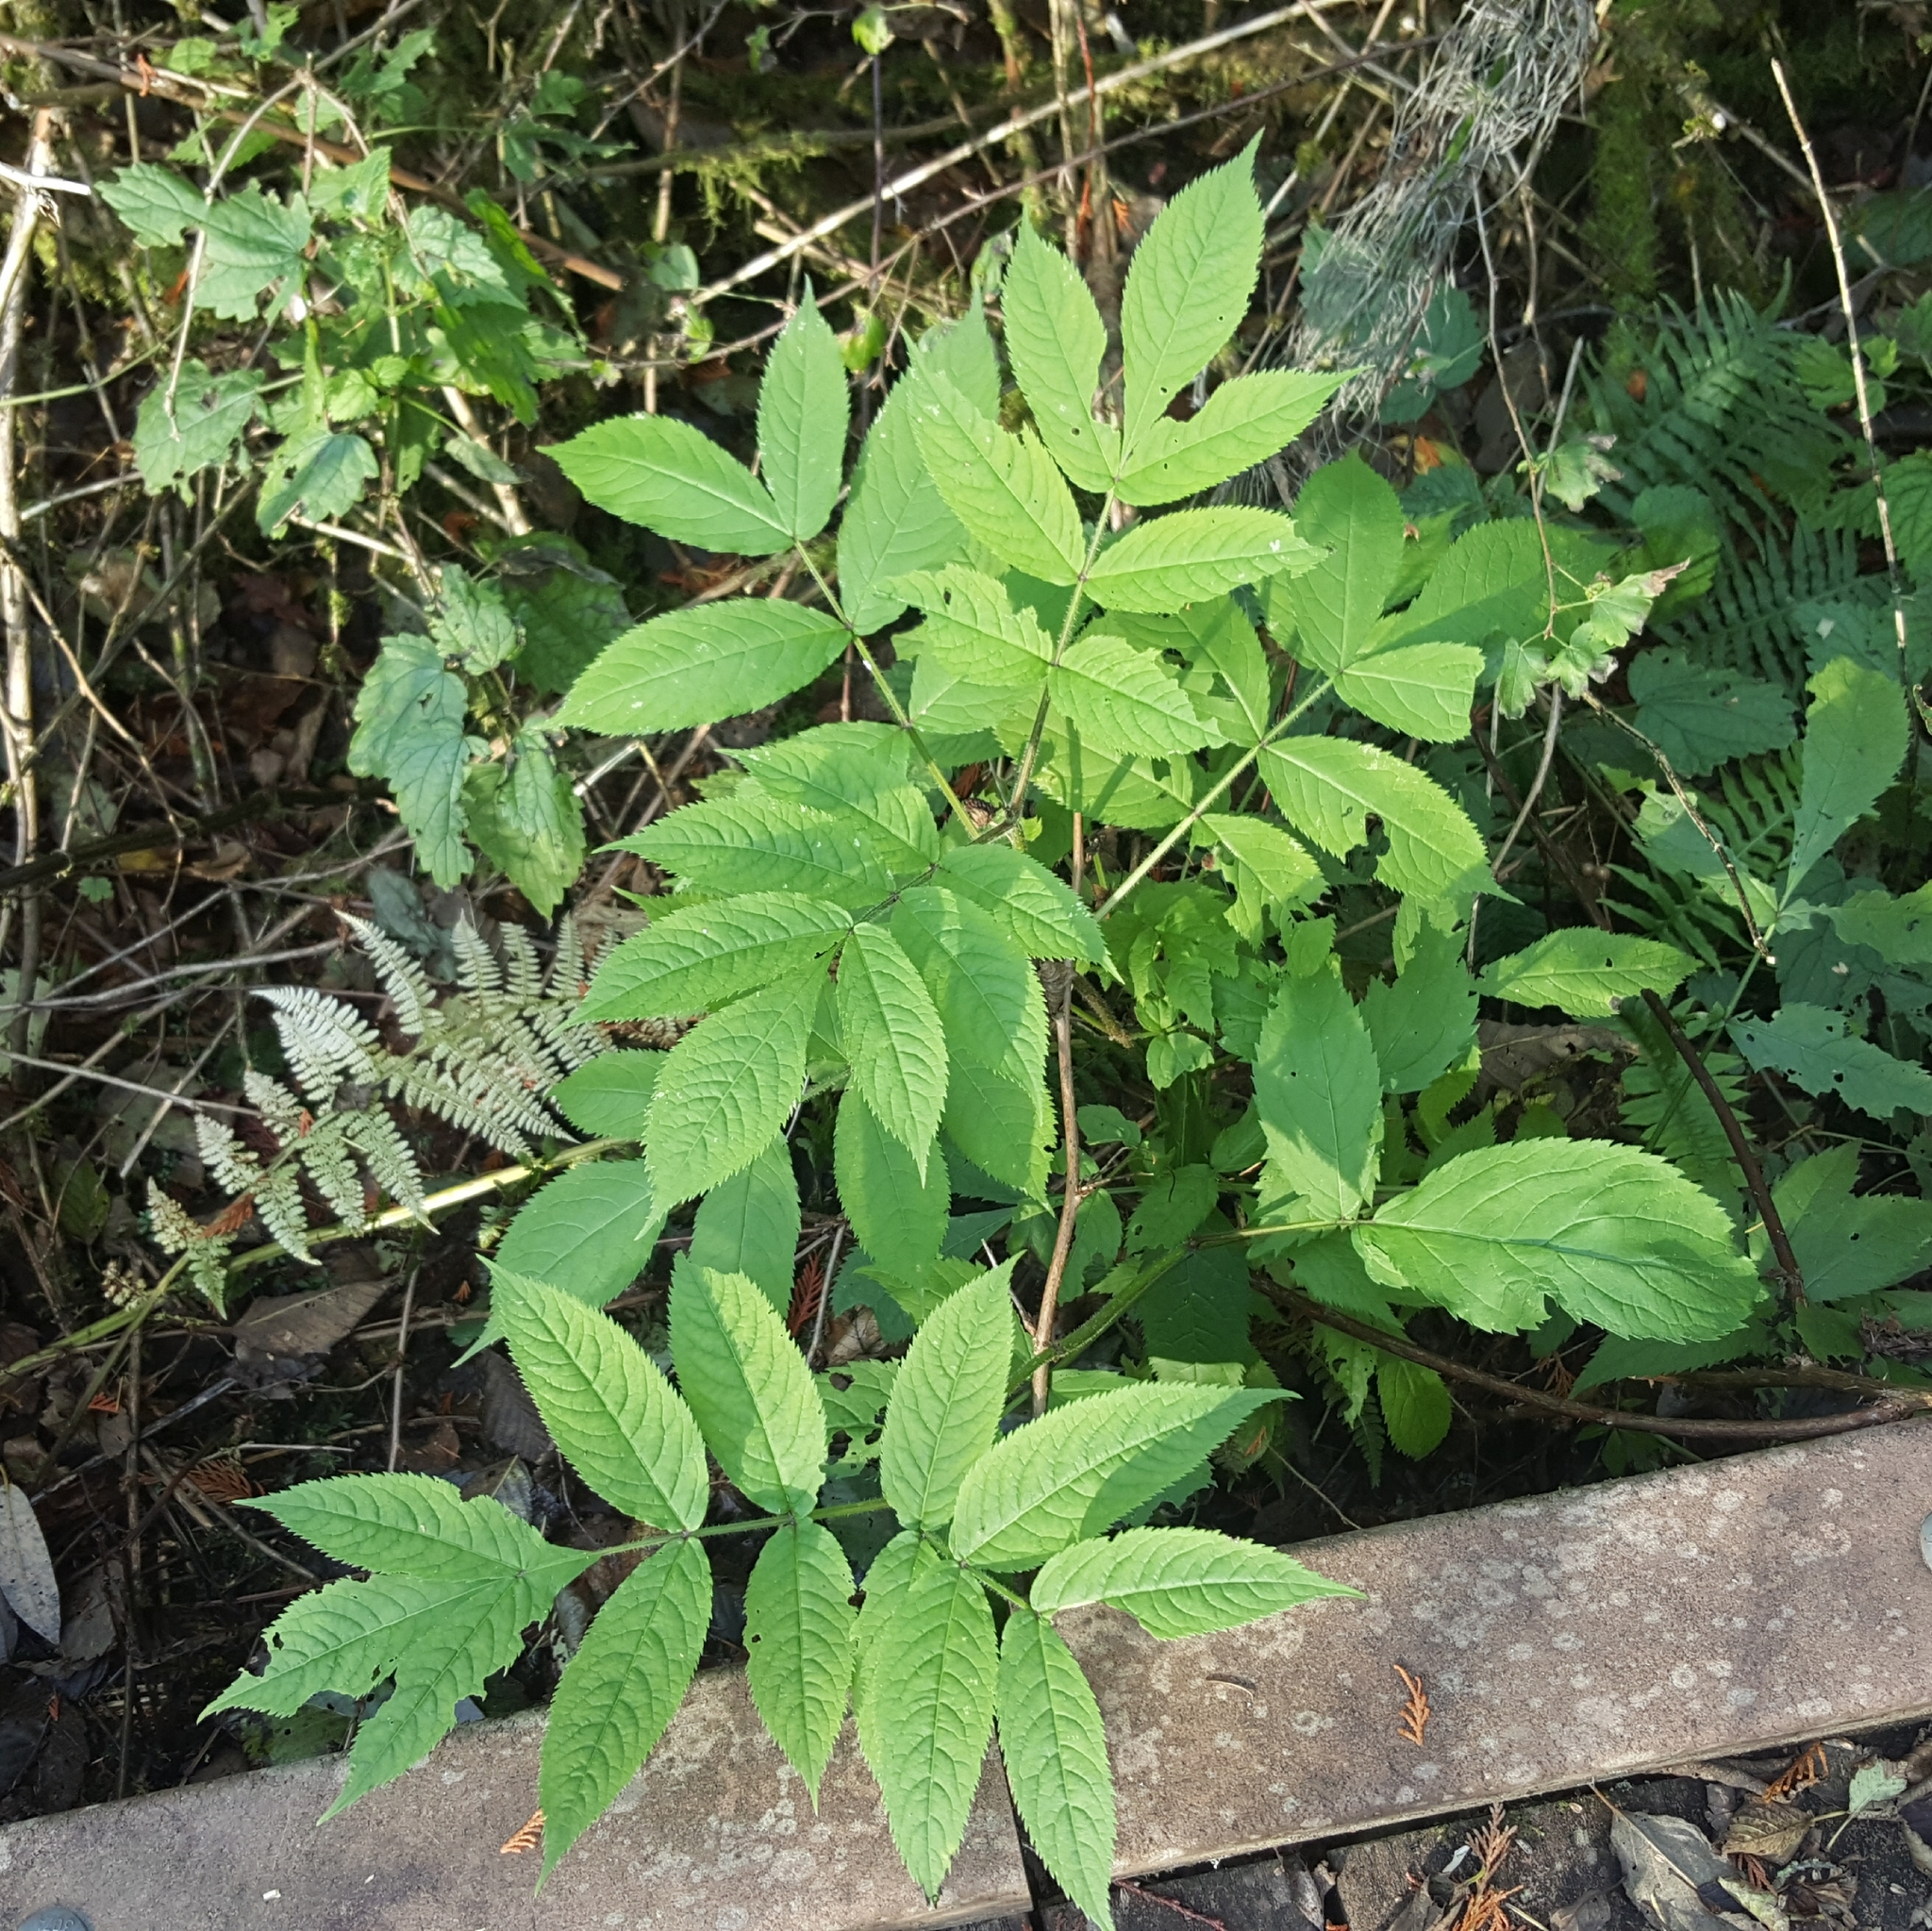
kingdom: Plantae
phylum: Tracheophyta
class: Magnoliopsida
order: Dipsacales
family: Viburnaceae
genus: Sambucus
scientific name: Sambucus racemosa
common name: Red-berried elder
